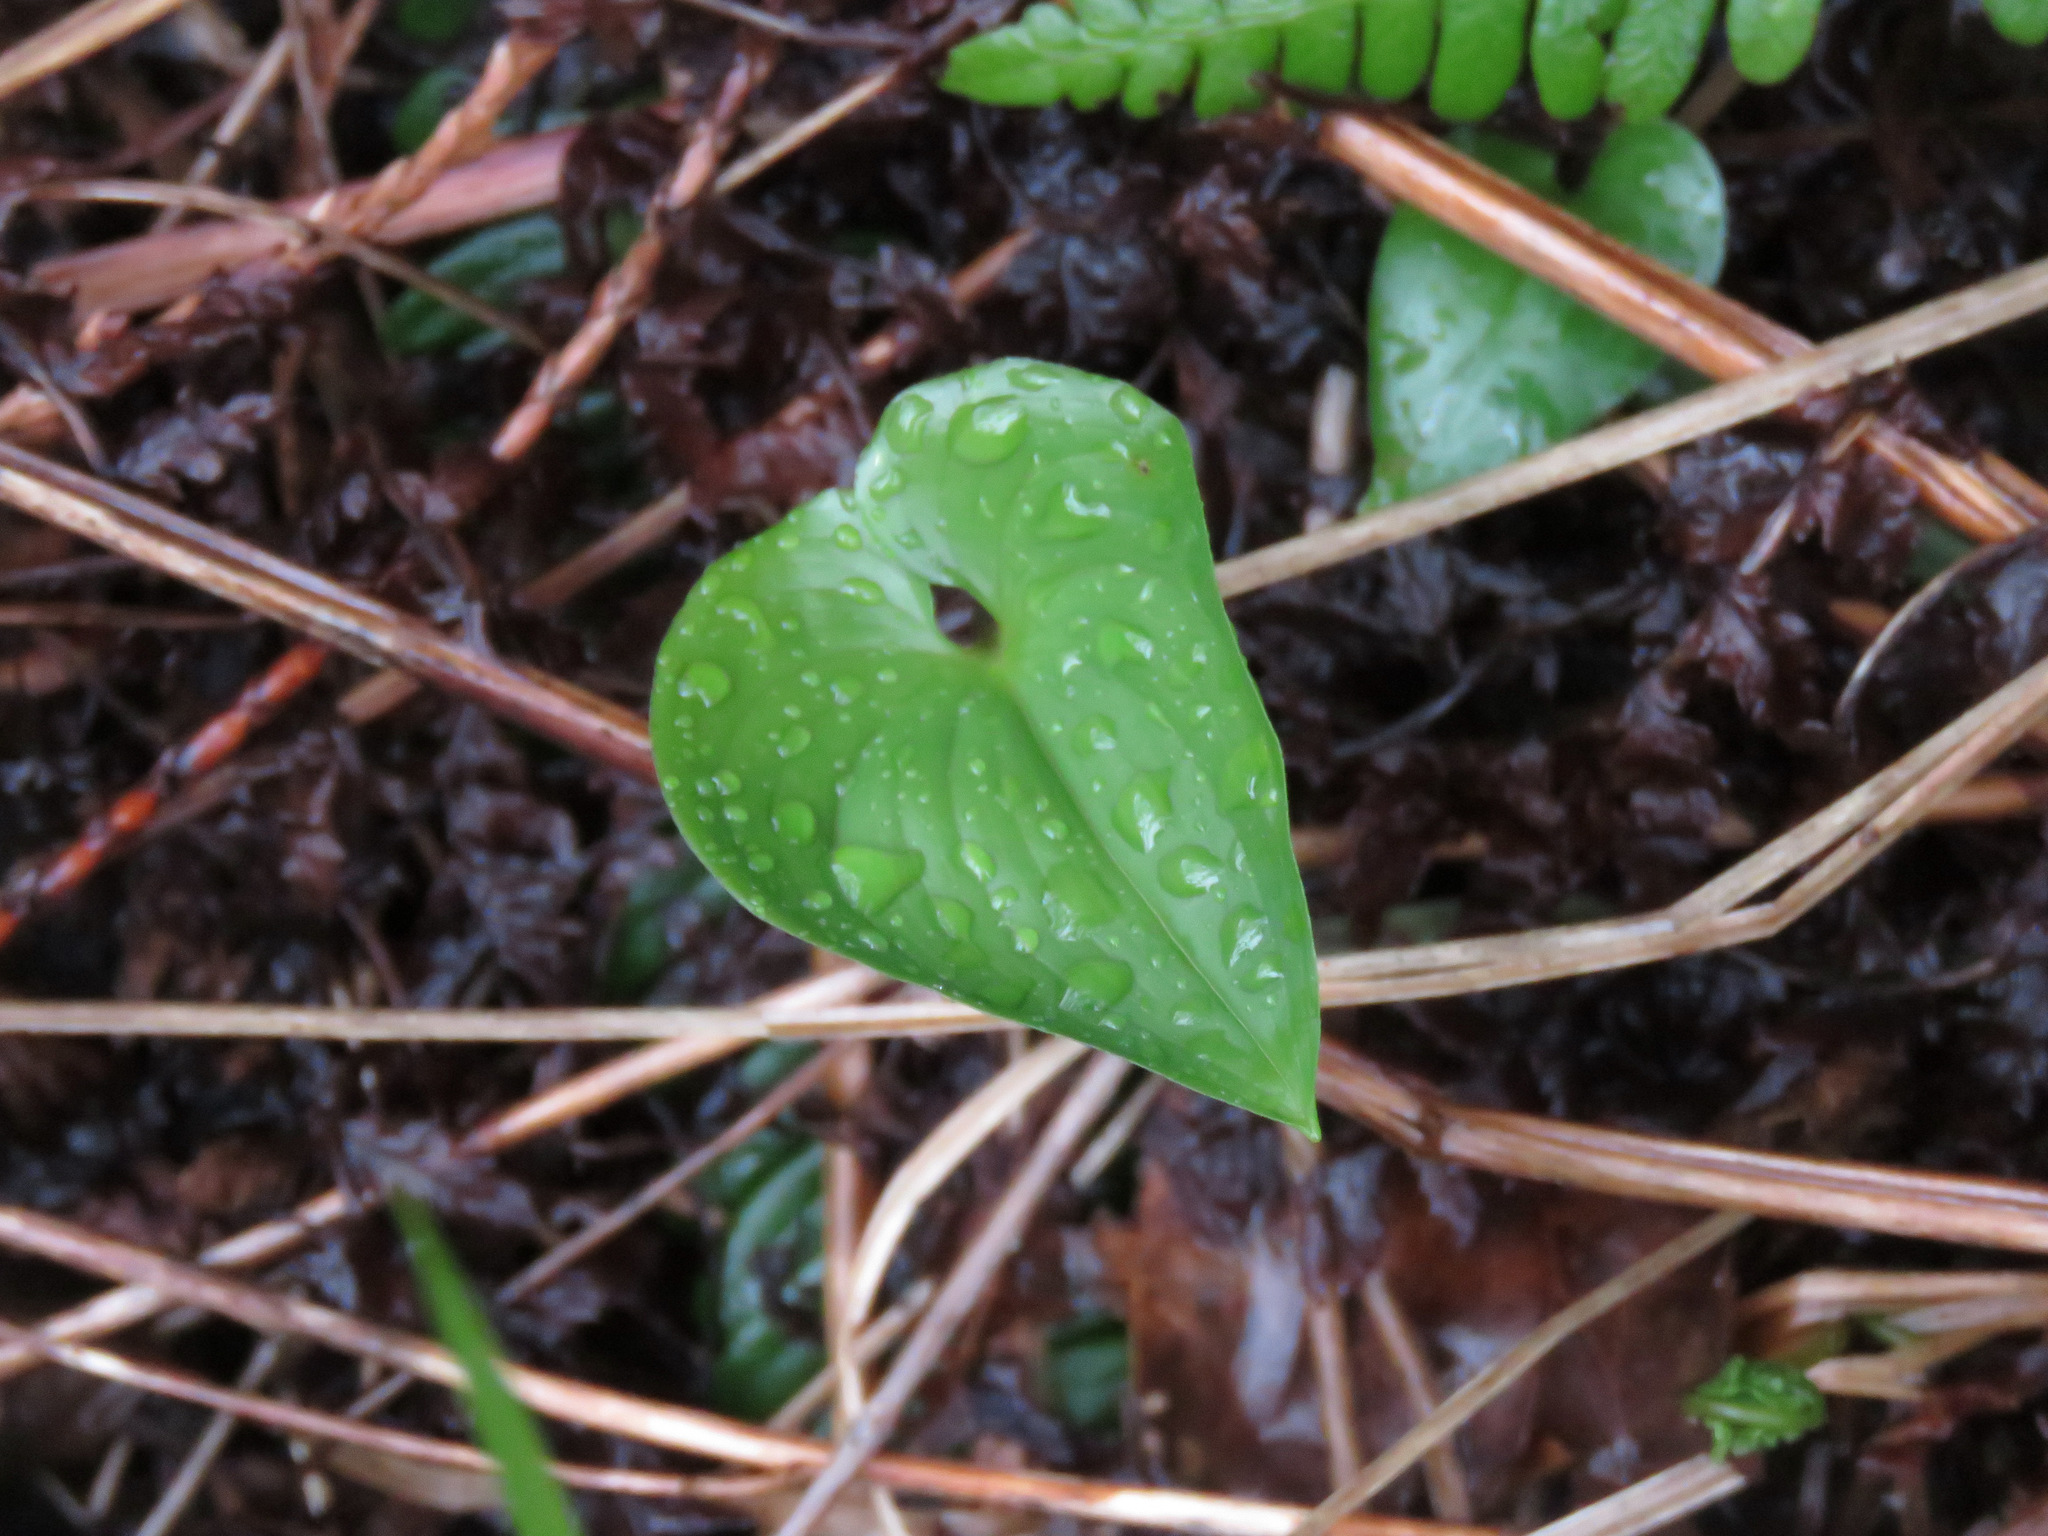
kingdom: Plantae
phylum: Tracheophyta
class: Liliopsida
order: Asparagales
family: Asparagaceae
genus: Maianthemum
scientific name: Maianthemum dilatatum
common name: False lily-of-the-valley
